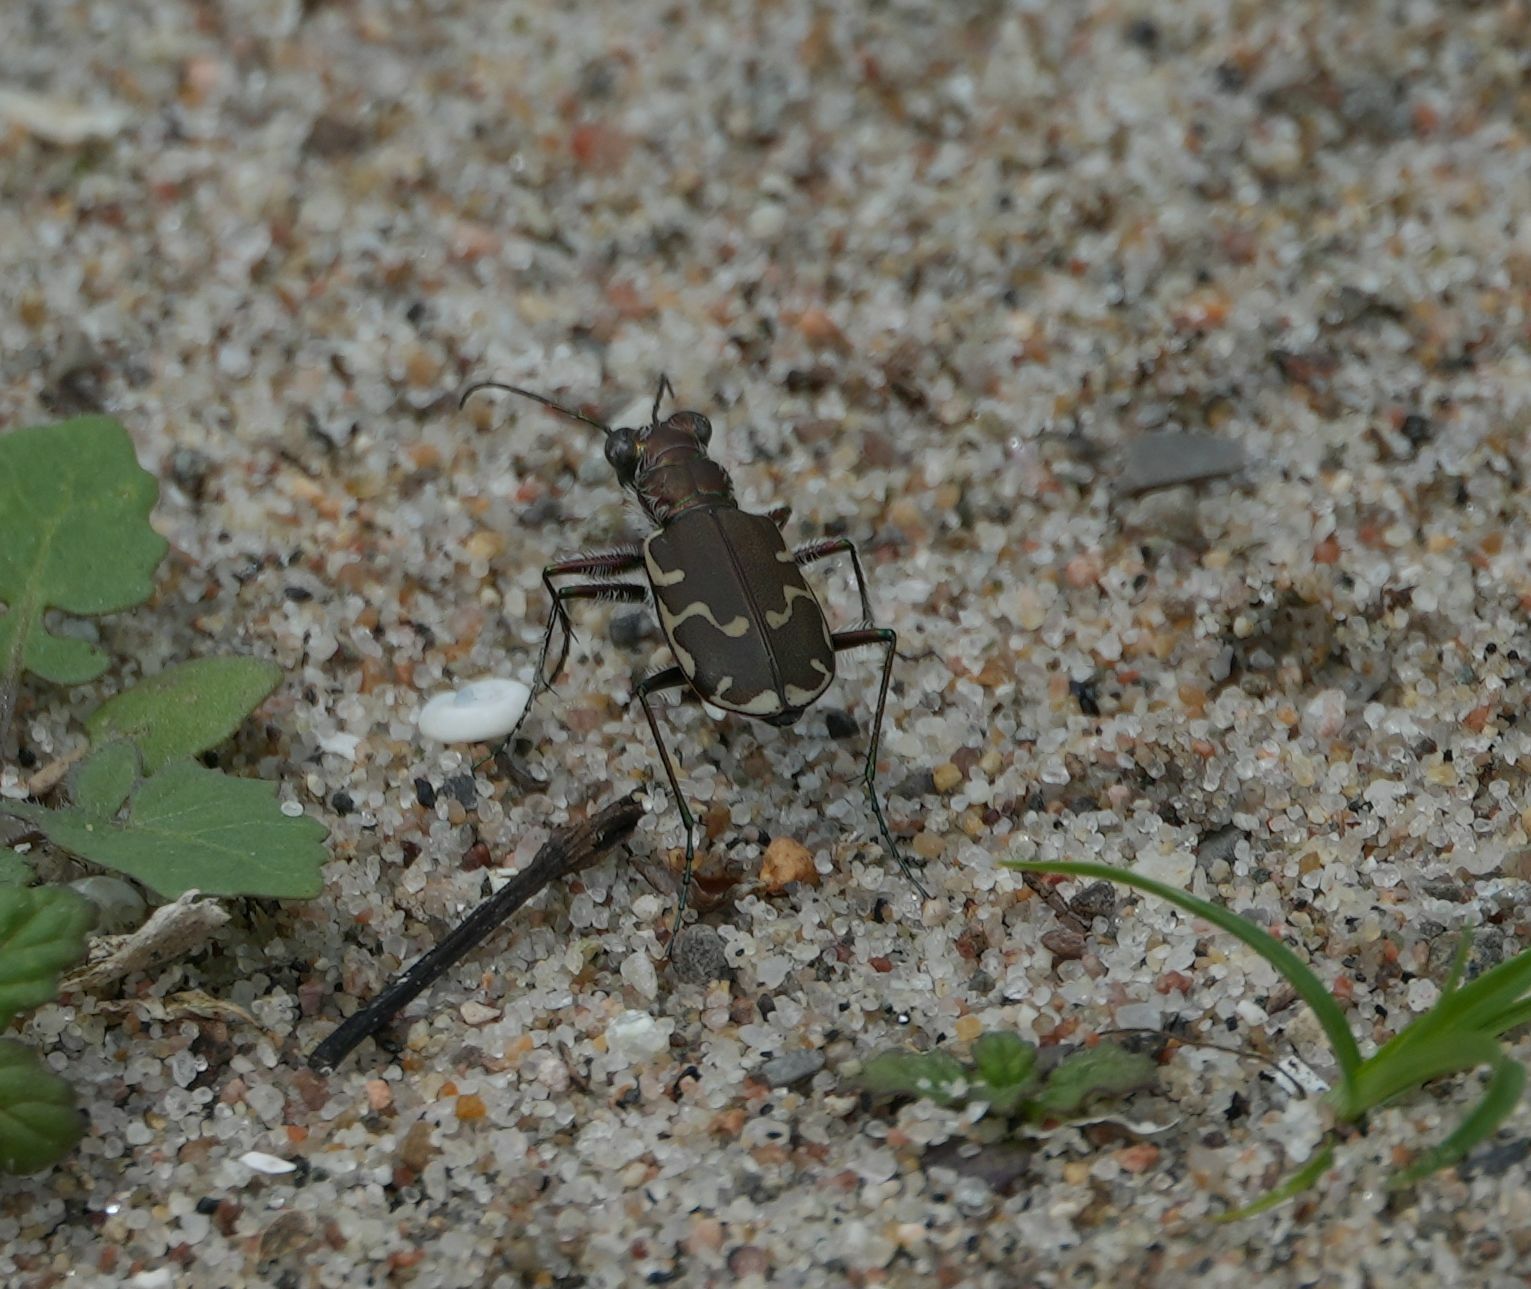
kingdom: Animalia
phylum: Arthropoda
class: Insecta
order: Coleoptera
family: Carabidae
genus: Cicindela
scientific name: Cicindela repanda
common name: Bronzed tiger beetle
